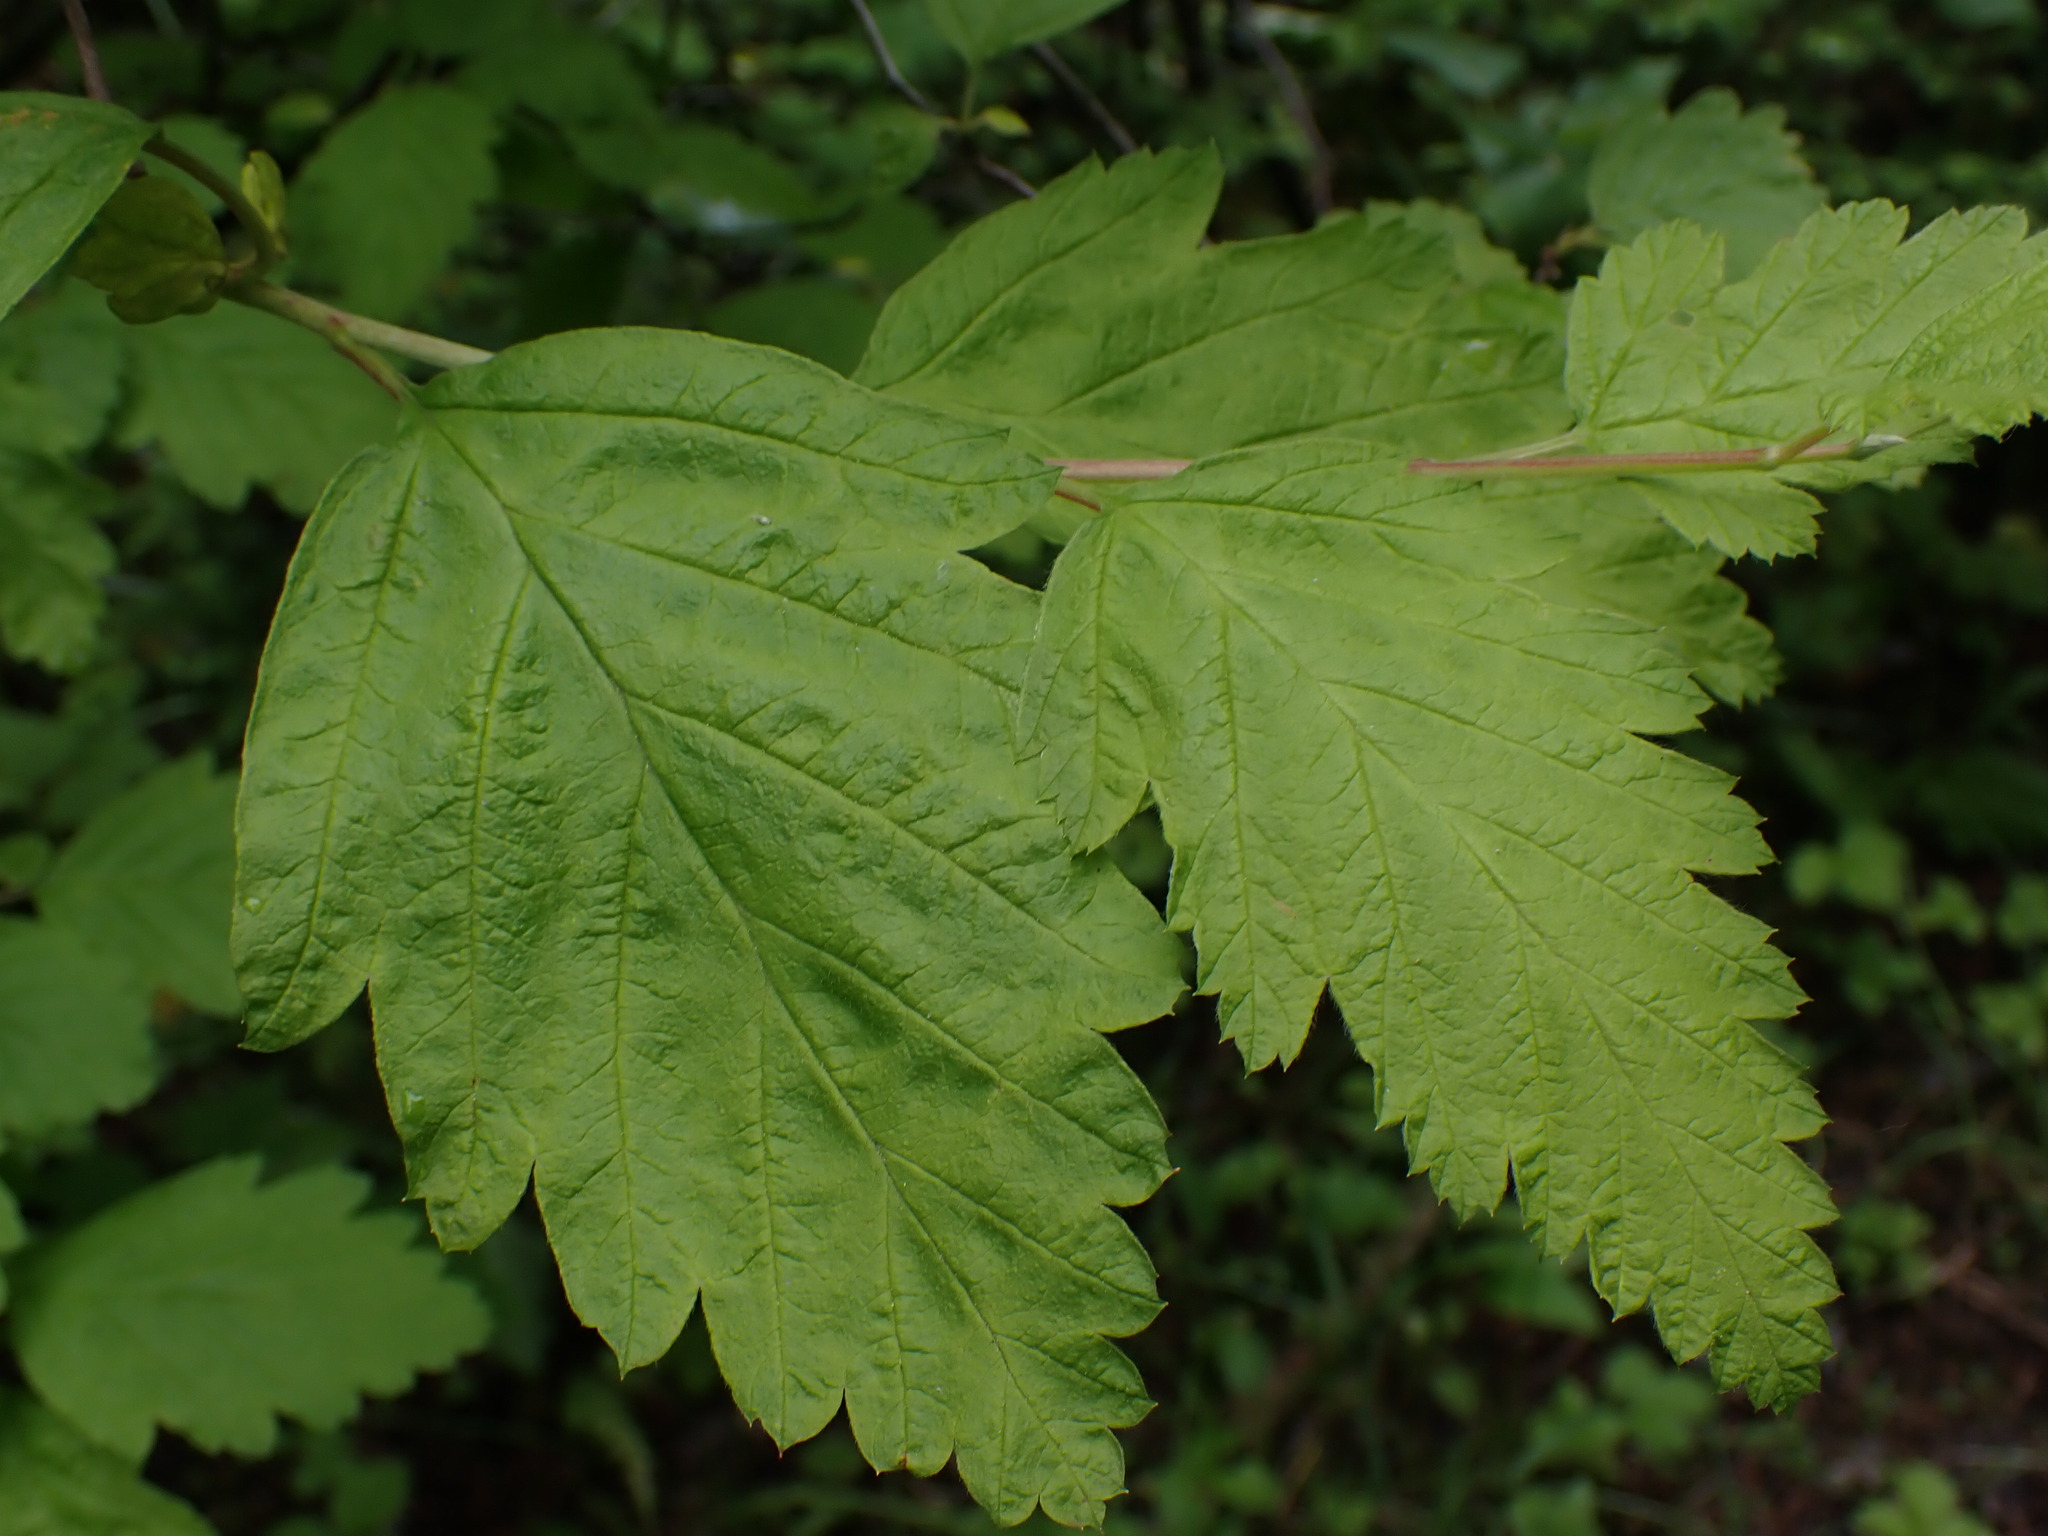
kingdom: Plantae
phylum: Tracheophyta
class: Magnoliopsida
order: Rosales
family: Rosaceae
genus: Holodiscus
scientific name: Holodiscus discolor
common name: Oceanspray
